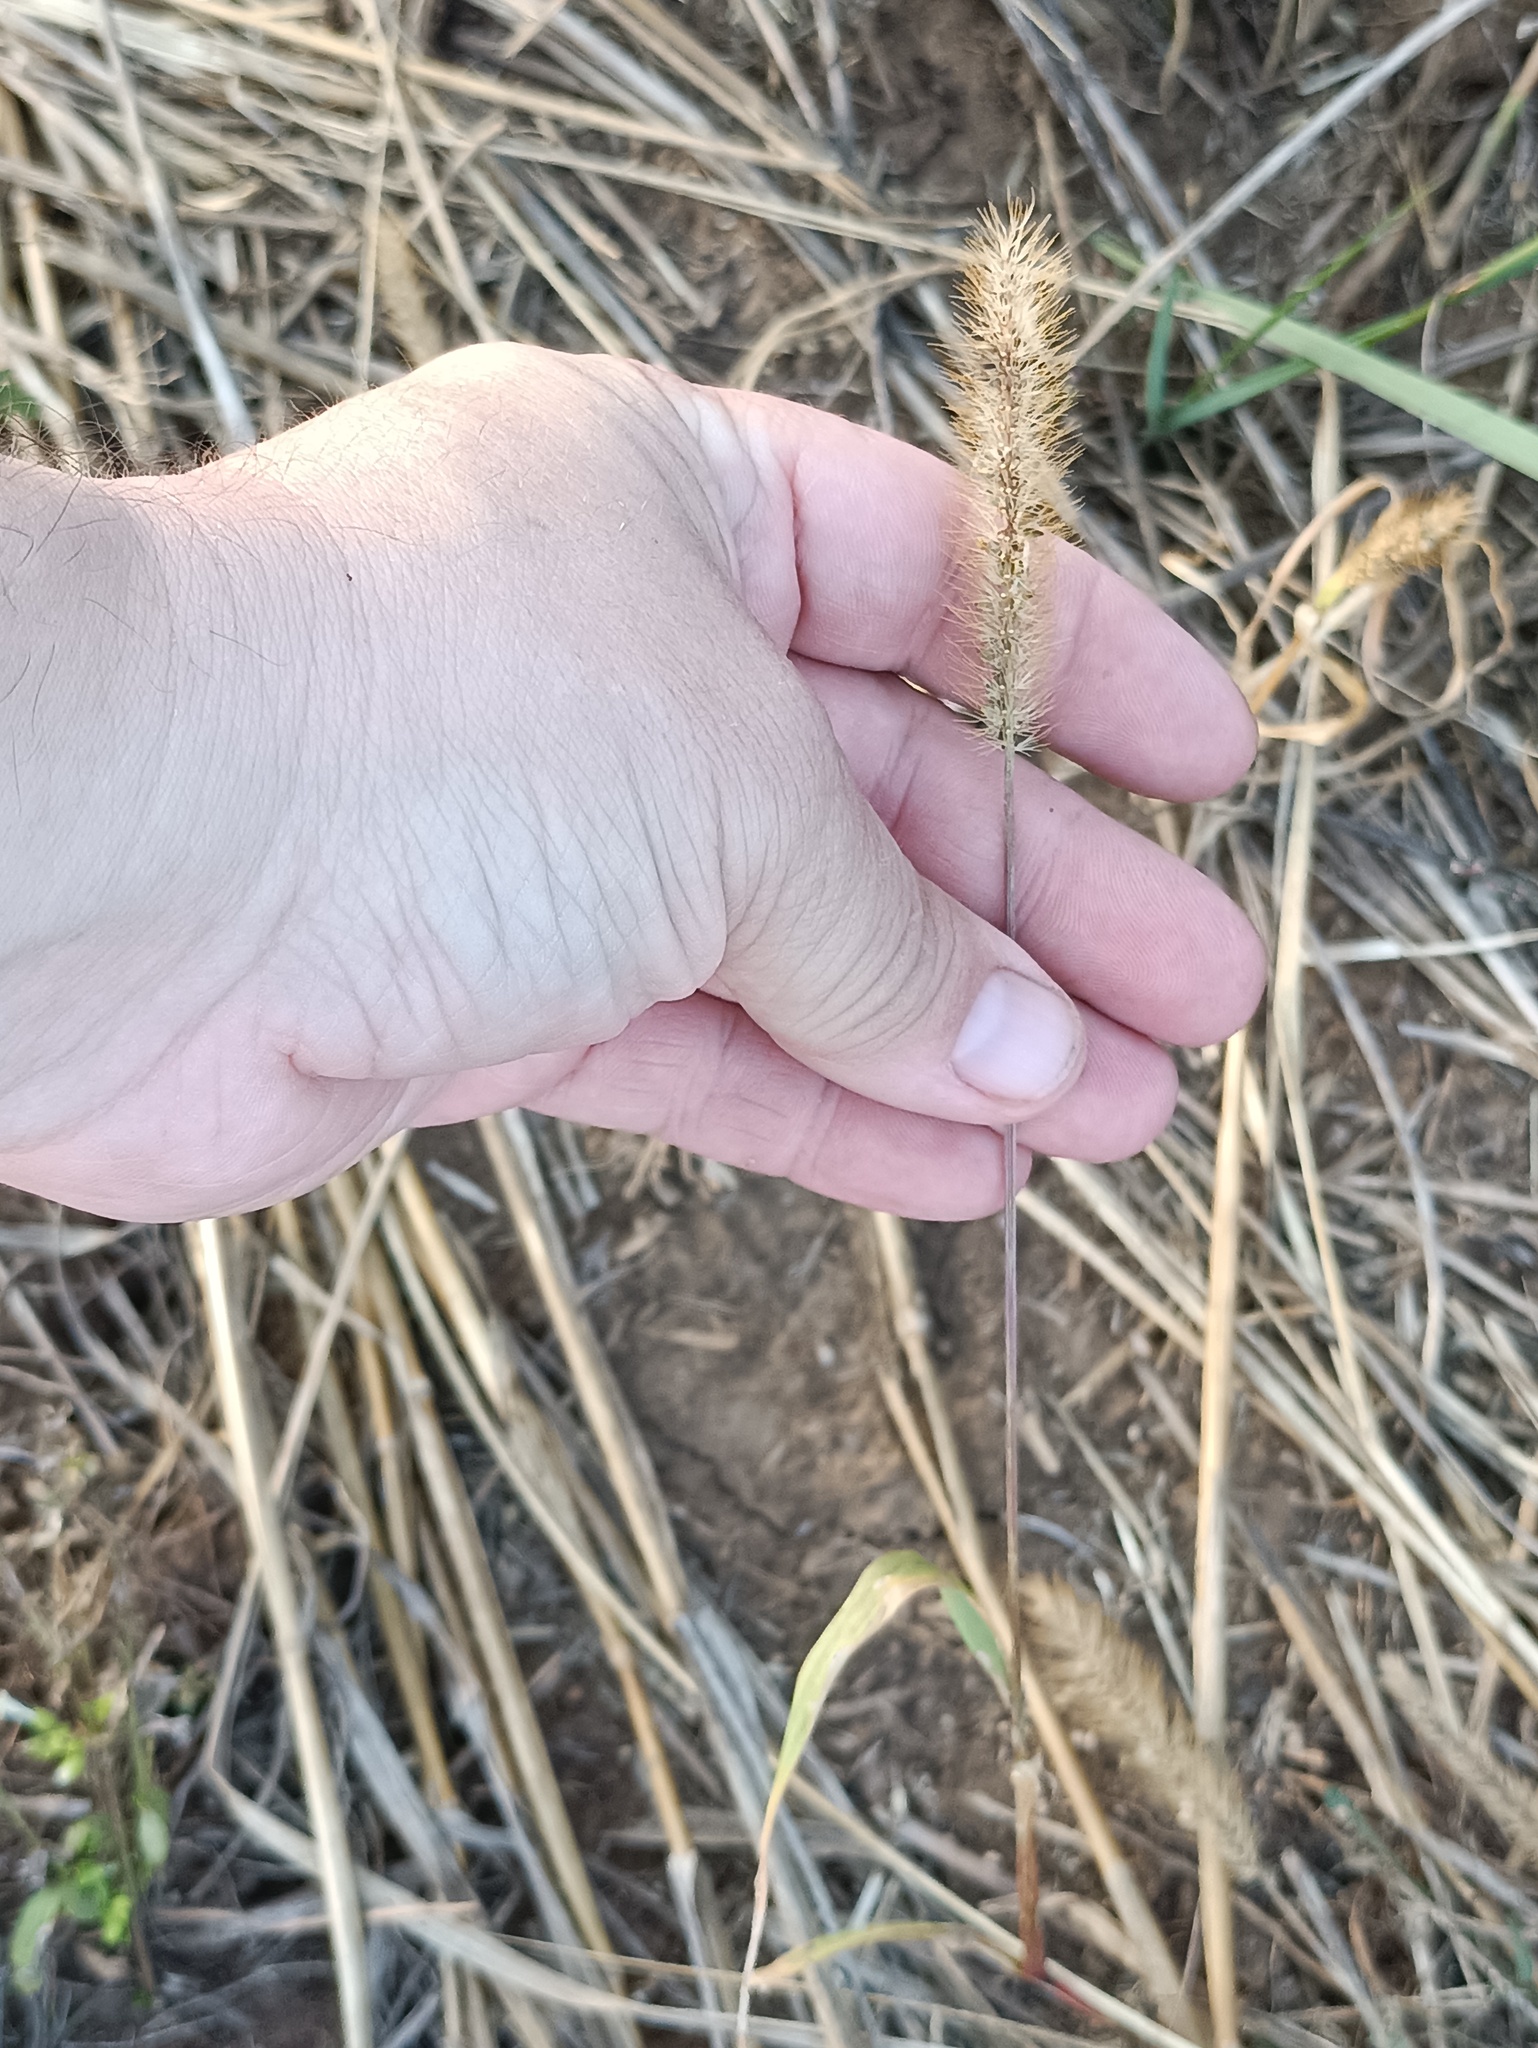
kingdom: Plantae
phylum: Tracheophyta
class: Liliopsida
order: Poales
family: Poaceae
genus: Setaria
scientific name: Setaria pumila
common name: Yellow bristle-grass
